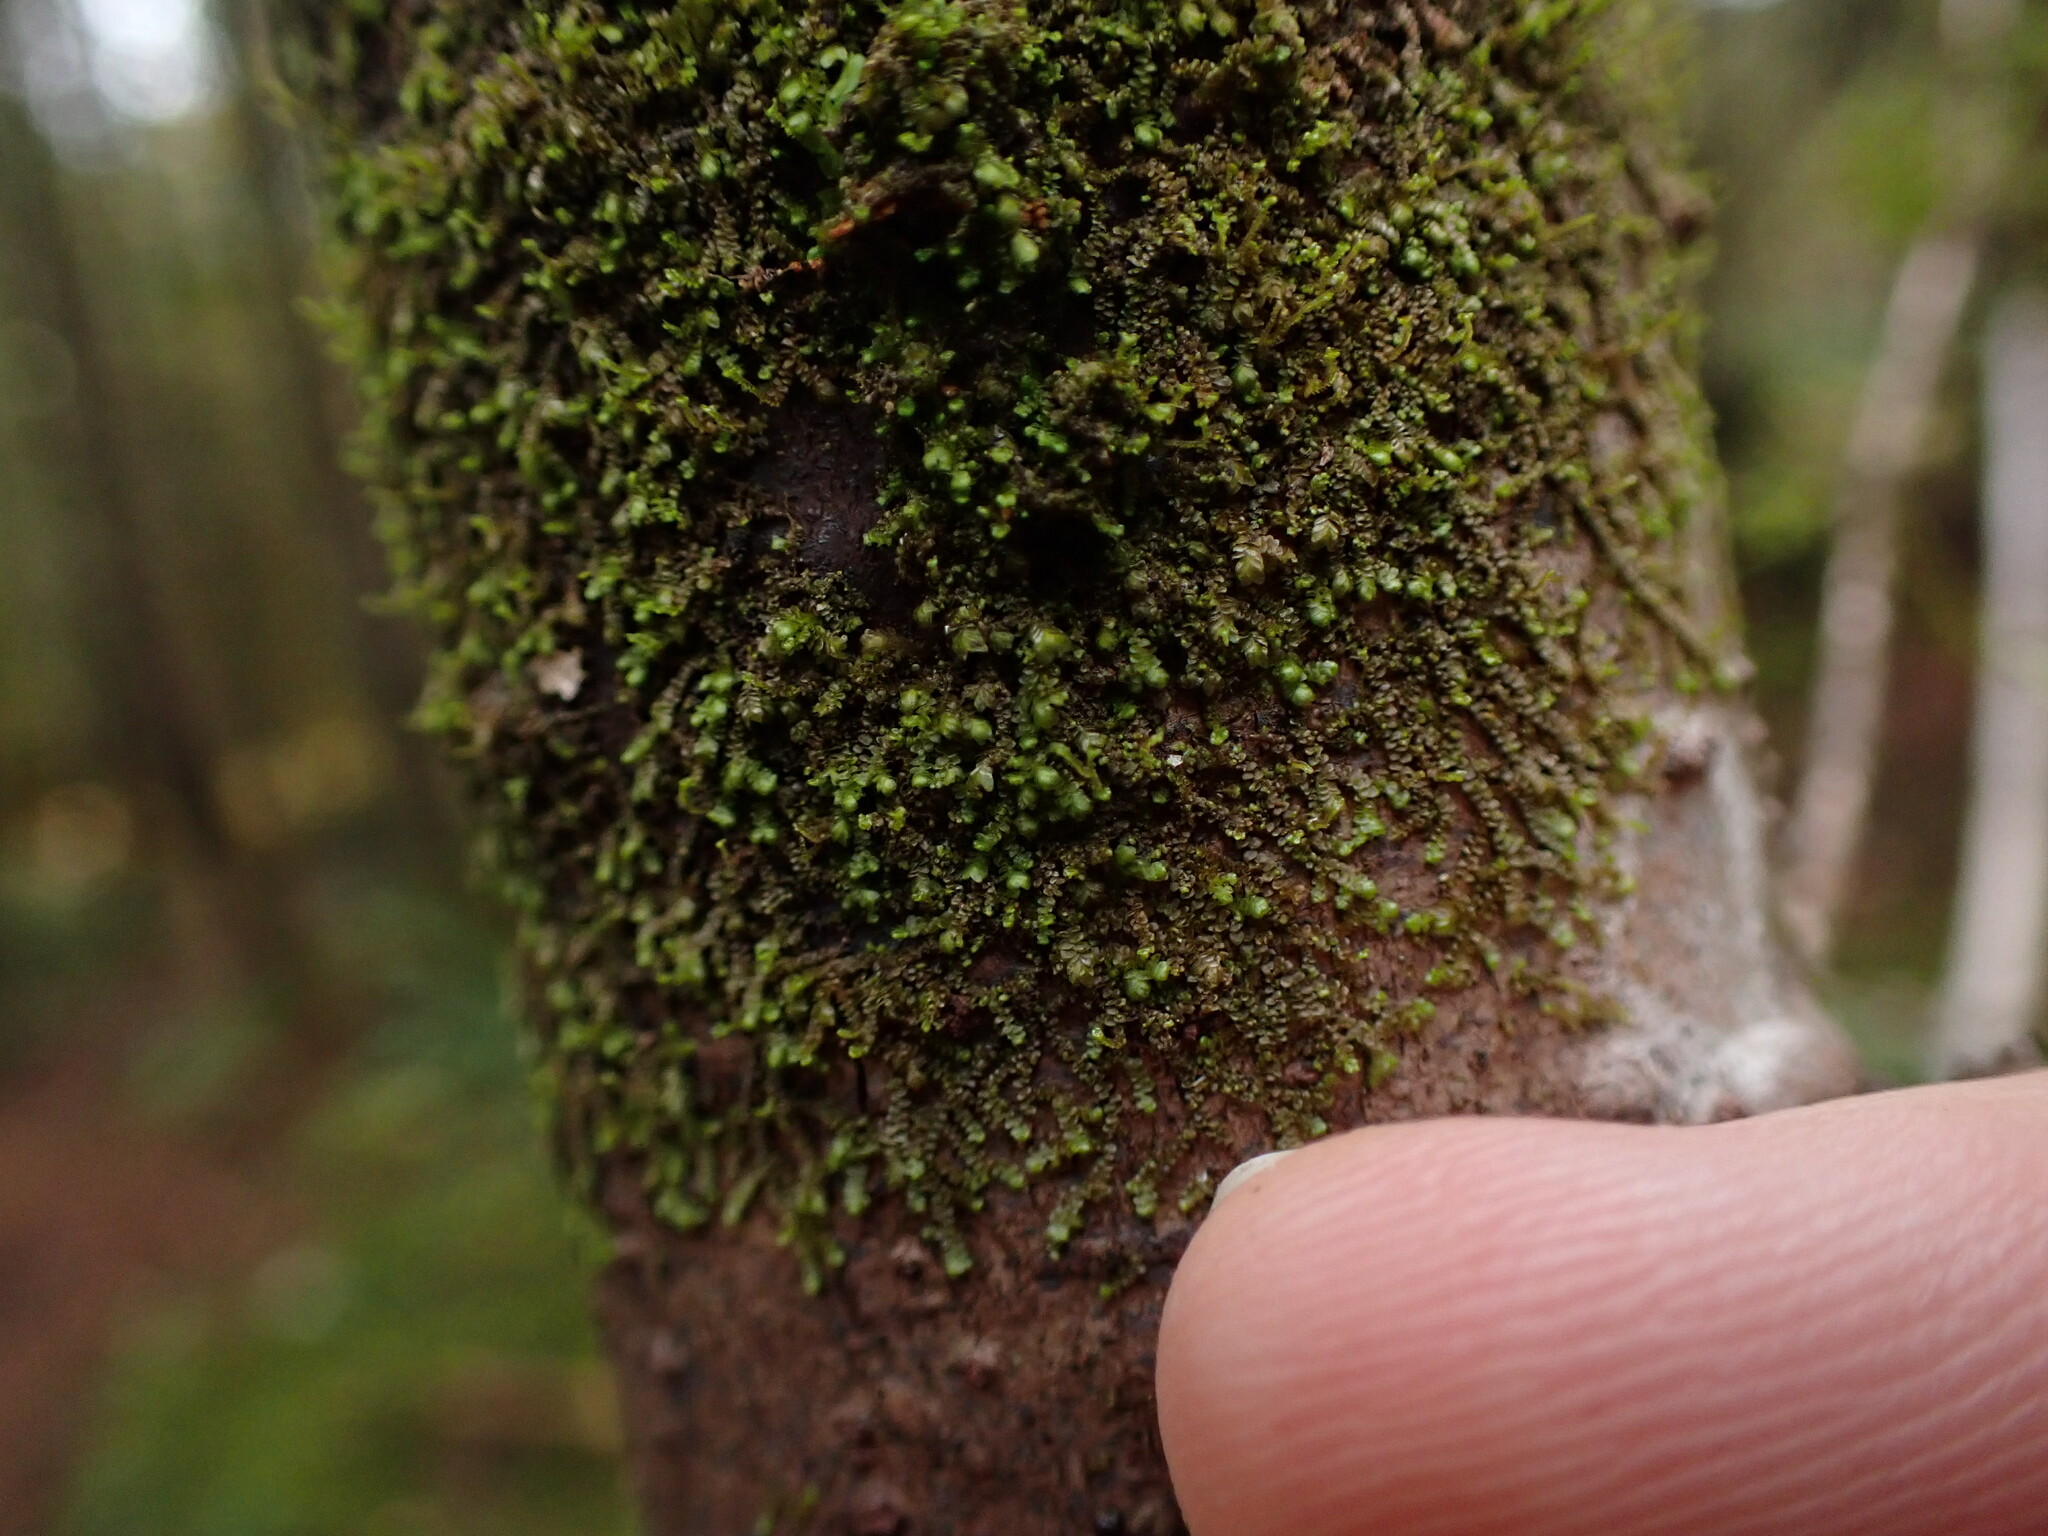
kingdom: Plantae
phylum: Marchantiophyta
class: Jungermanniopsida
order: Porellales
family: Frullaniaceae
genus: Frullania
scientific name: Frullania bolanderi
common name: Bolander s scalewort
